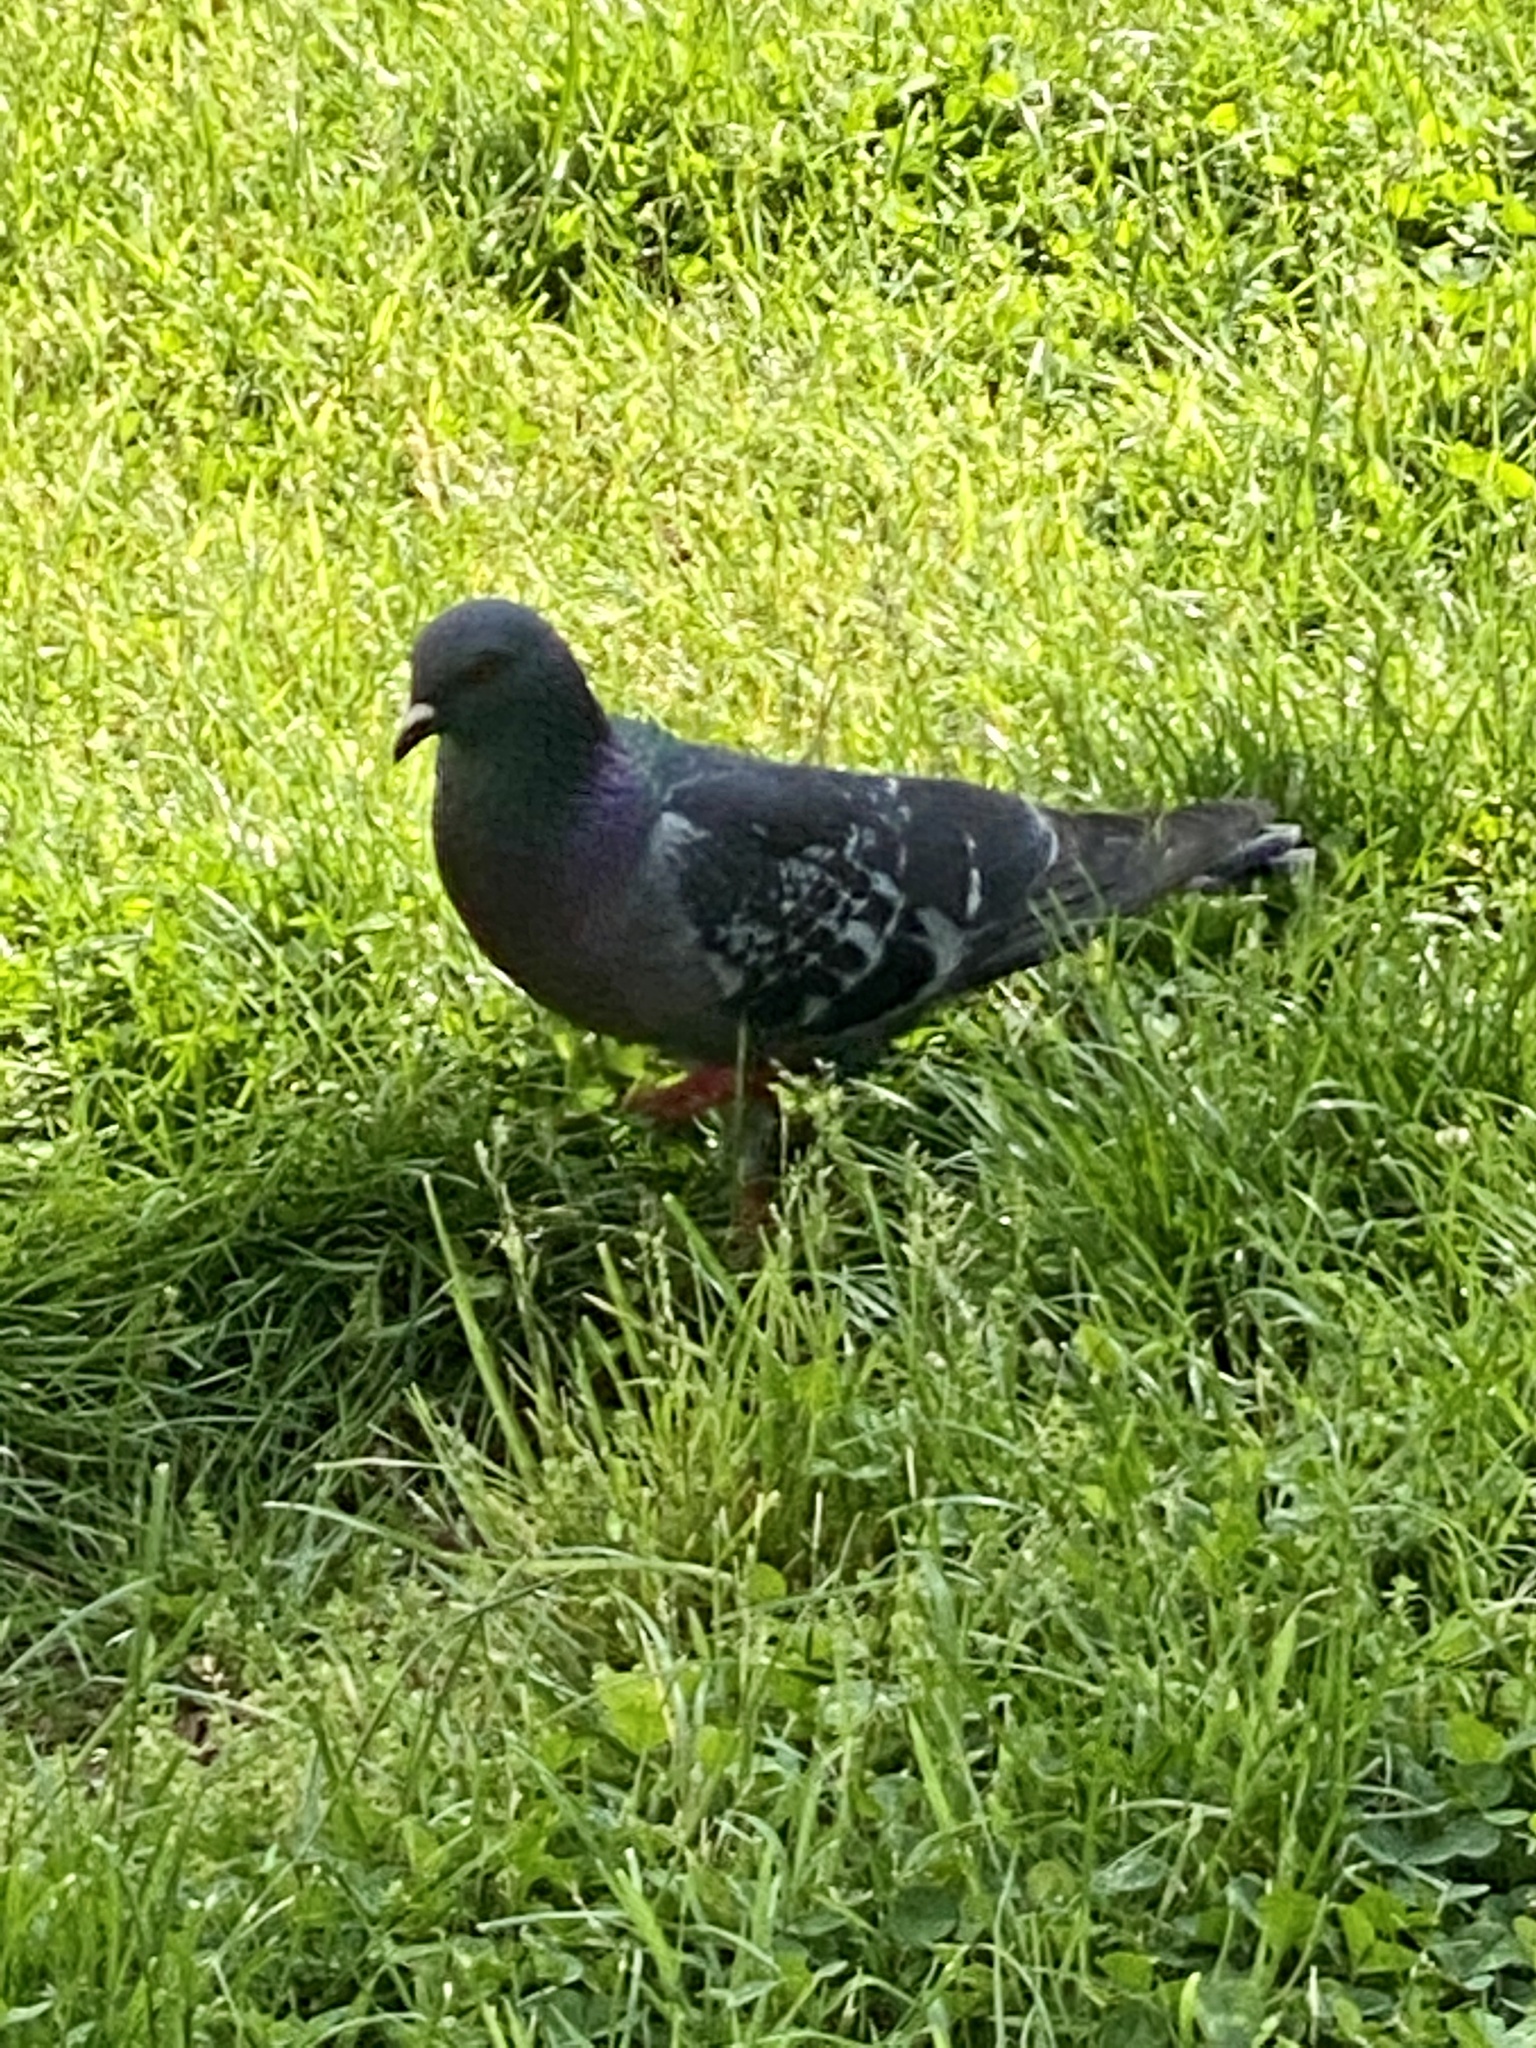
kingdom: Animalia
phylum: Chordata
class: Aves
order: Columbiformes
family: Columbidae
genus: Columba
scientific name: Columba livia
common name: Rock pigeon
